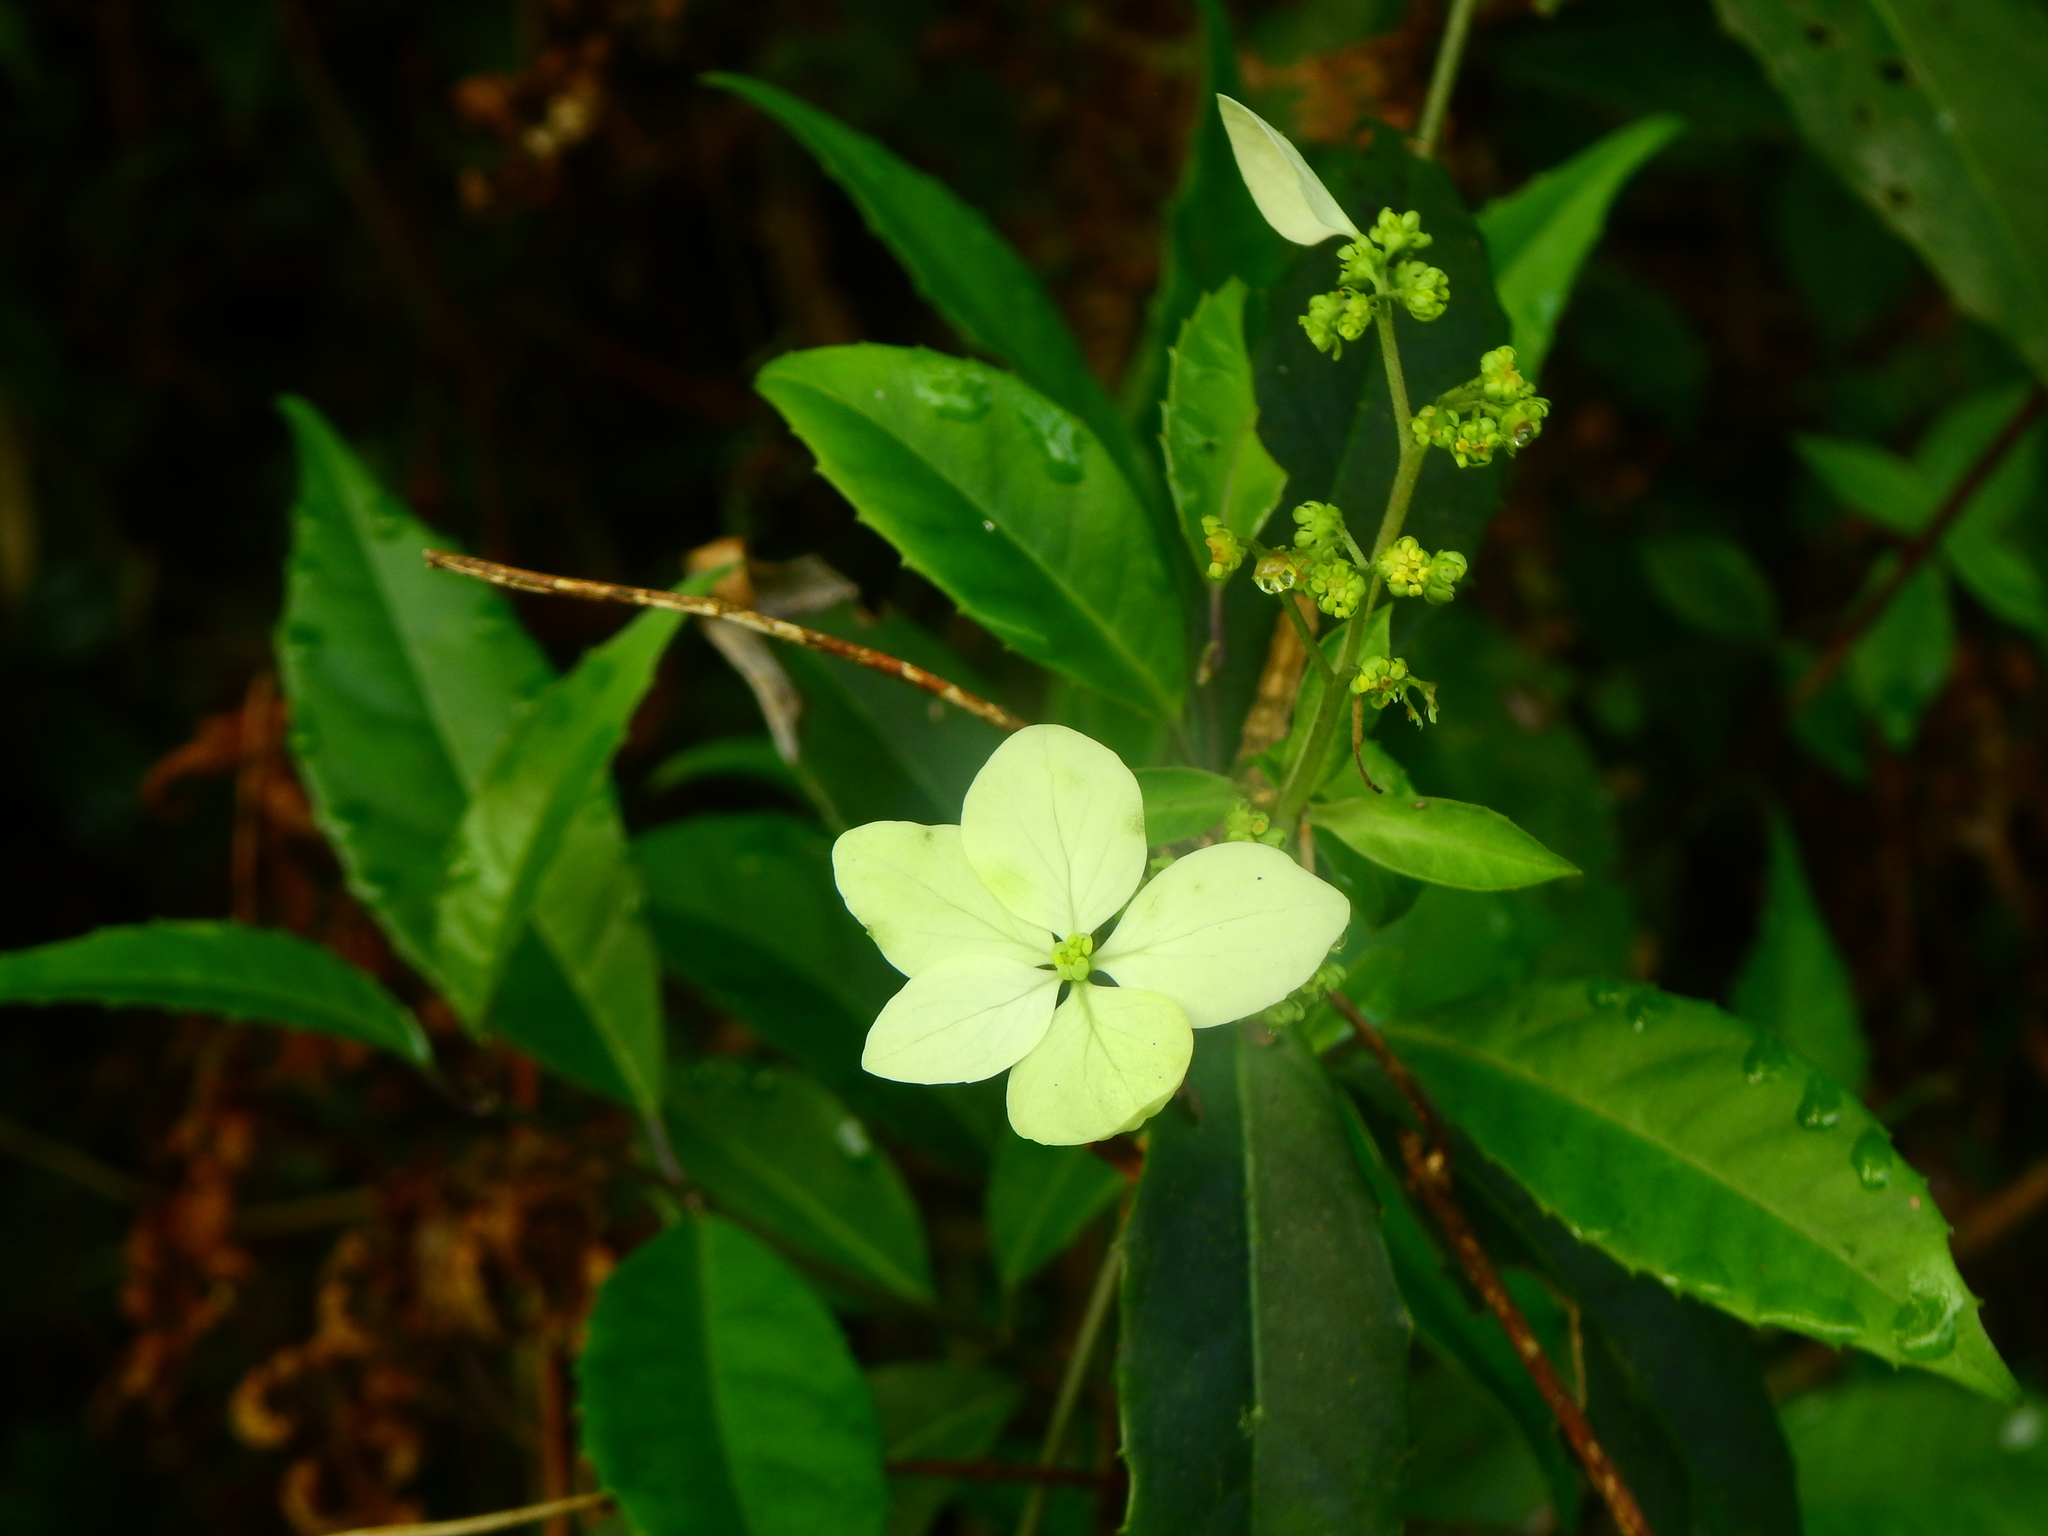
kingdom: Plantae
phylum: Tracheophyta
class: Magnoliopsida
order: Cornales
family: Hydrangeaceae
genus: Hydrangea
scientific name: Hydrangea chinensis
